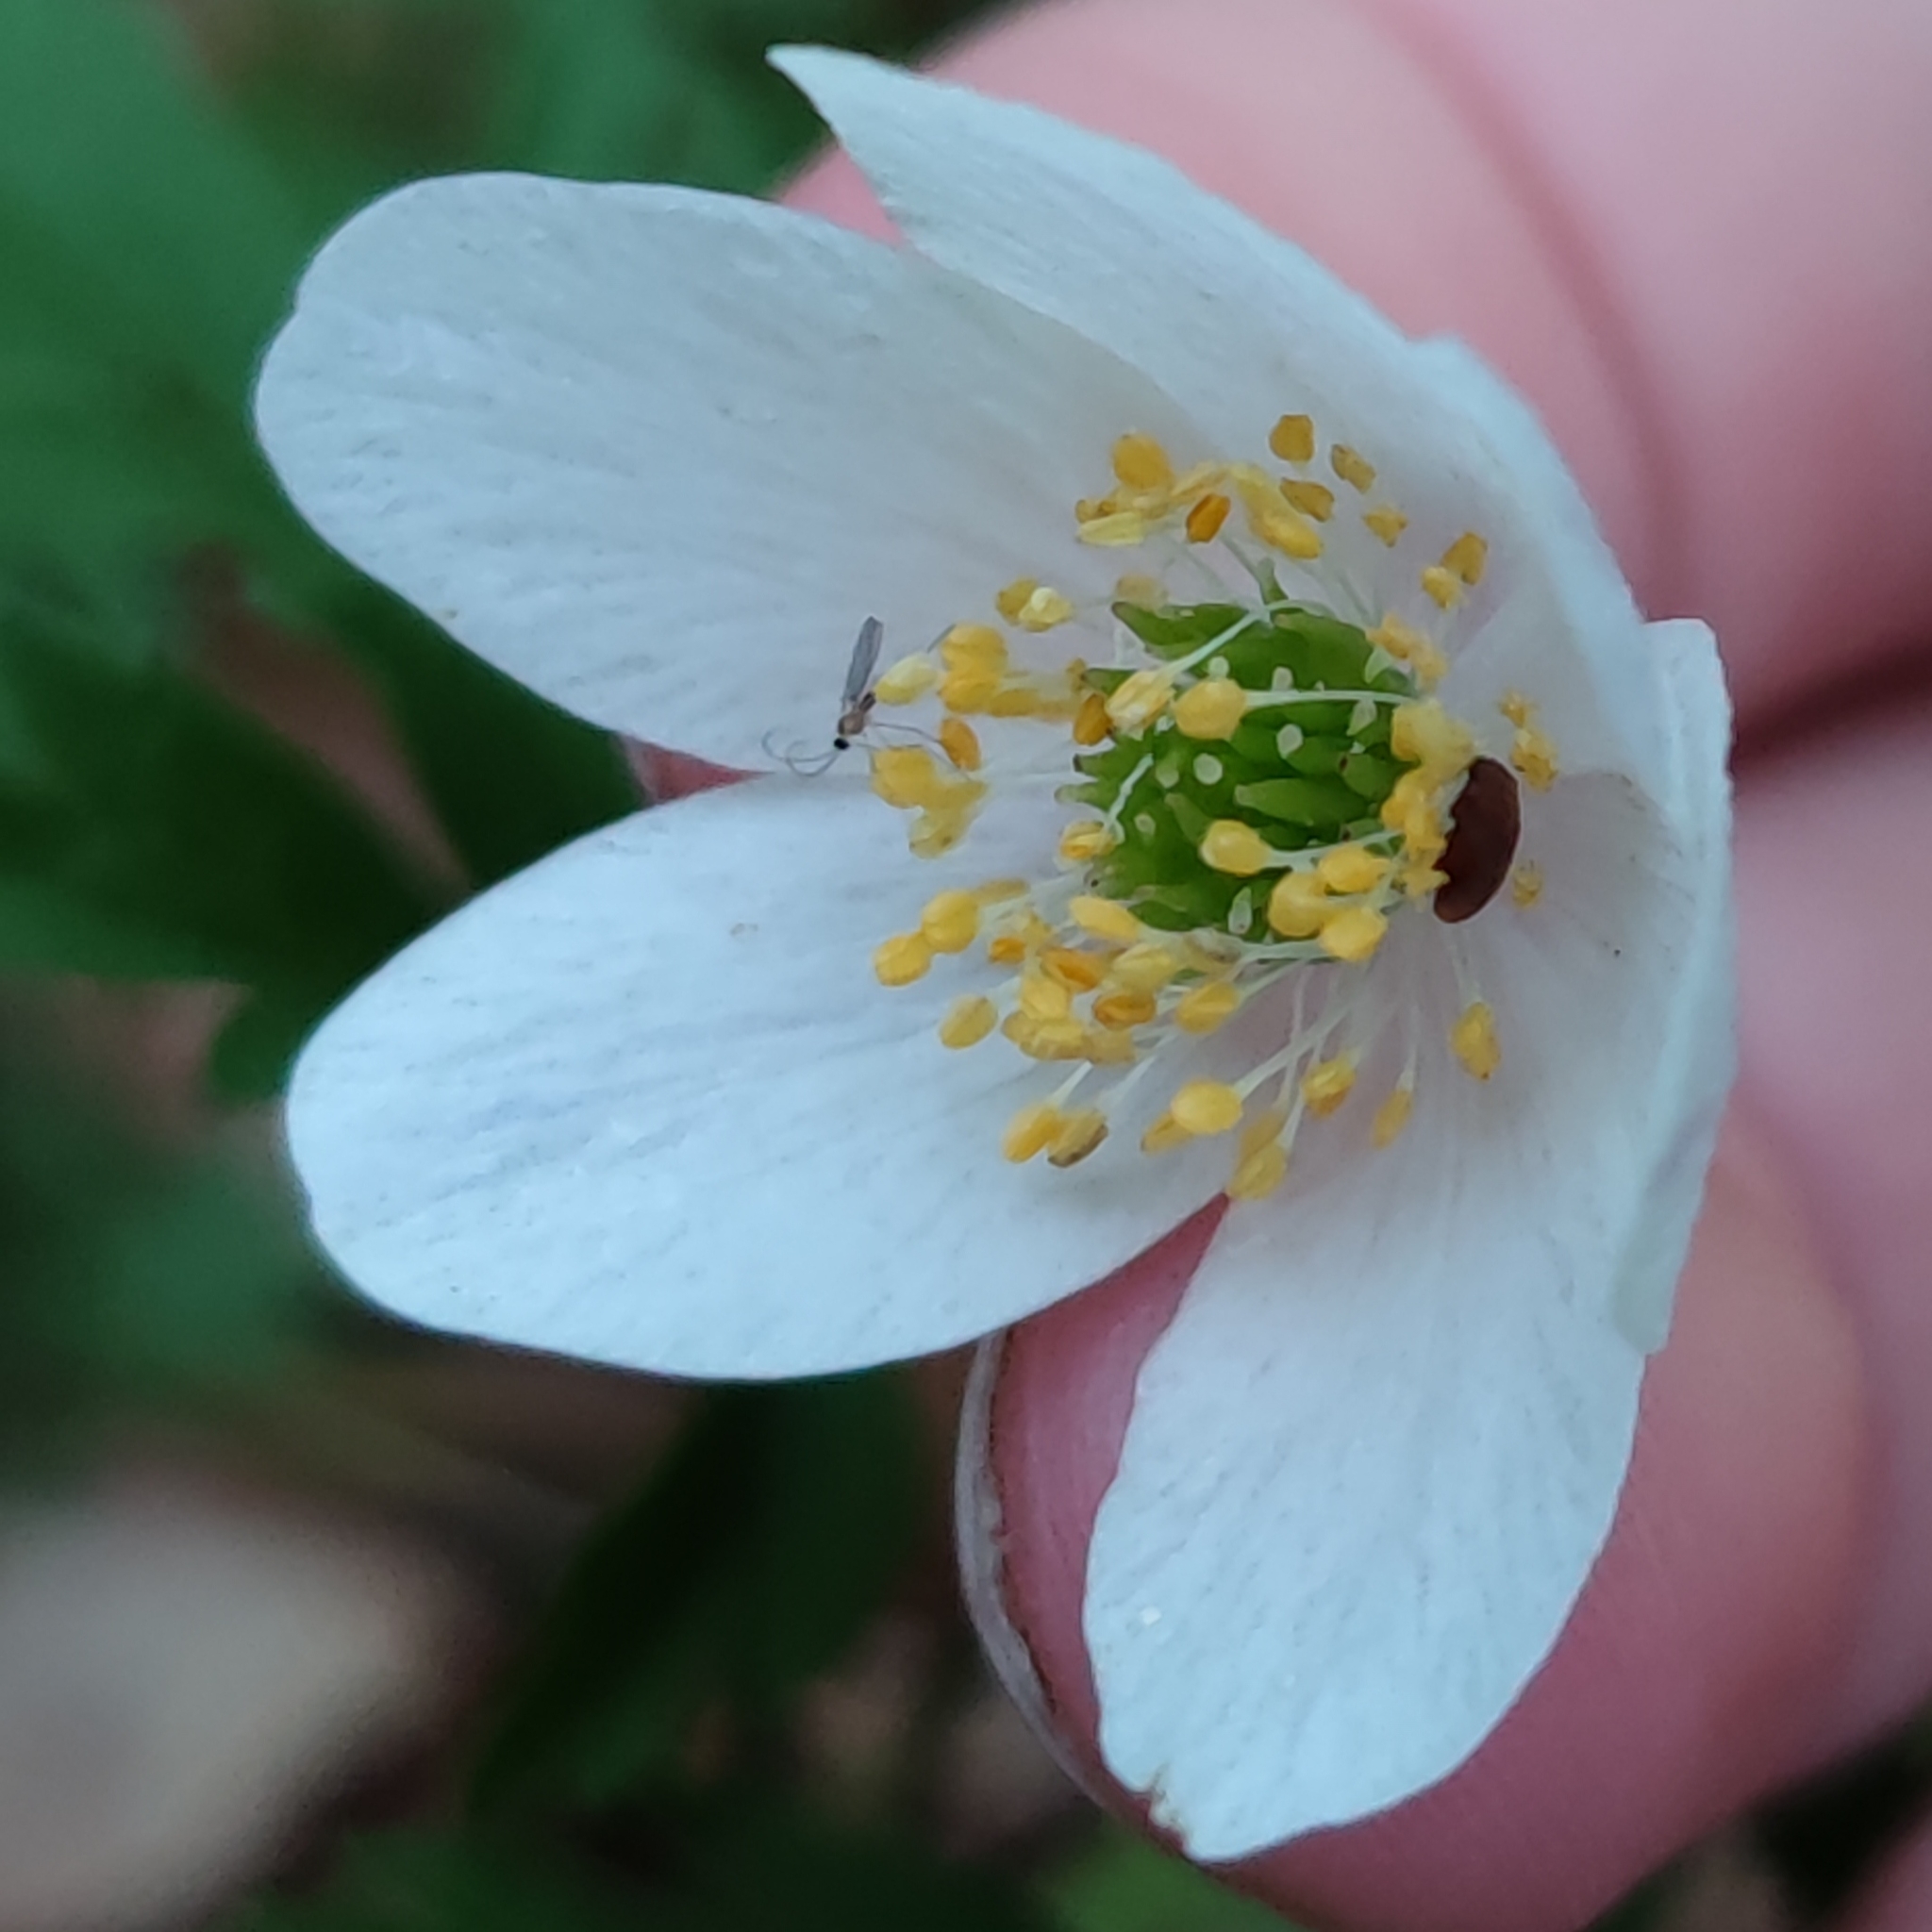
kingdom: Plantae
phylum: Tracheophyta
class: Magnoliopsida
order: Ranunculales
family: Ranunculaceae
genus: Anemone
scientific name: Anemone nemorosa
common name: Wood anemone
